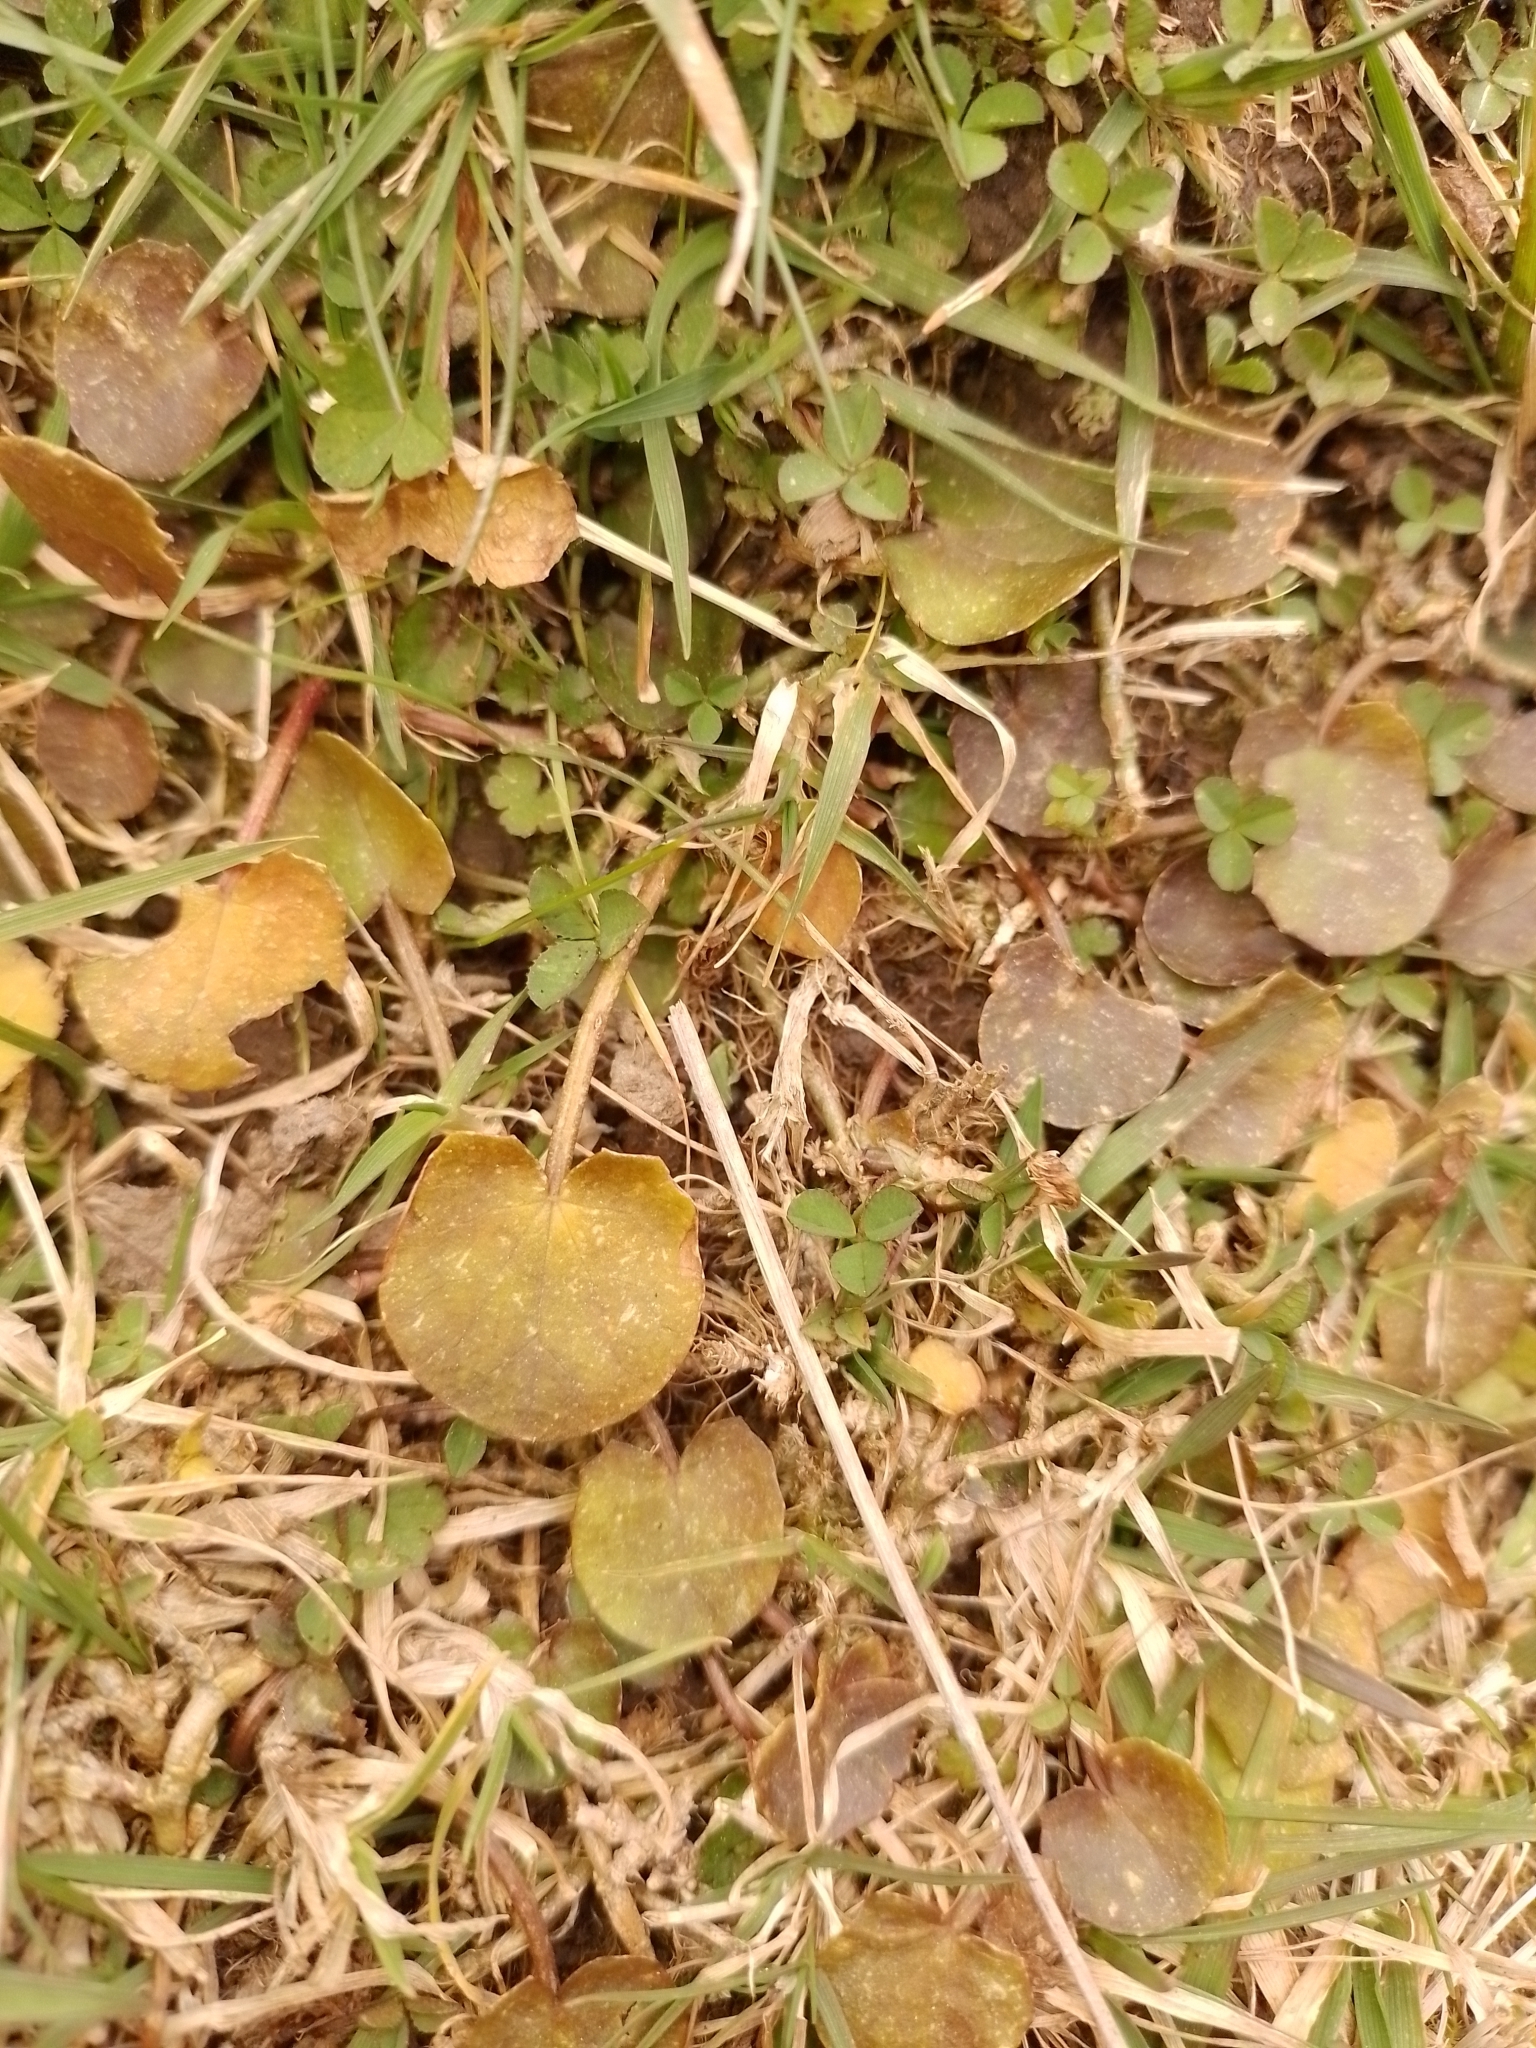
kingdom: Plantae
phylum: Tracheophyta
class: Magnoliopsida
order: Apiales
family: Apiaceae
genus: Centella
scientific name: Centella uniflora
